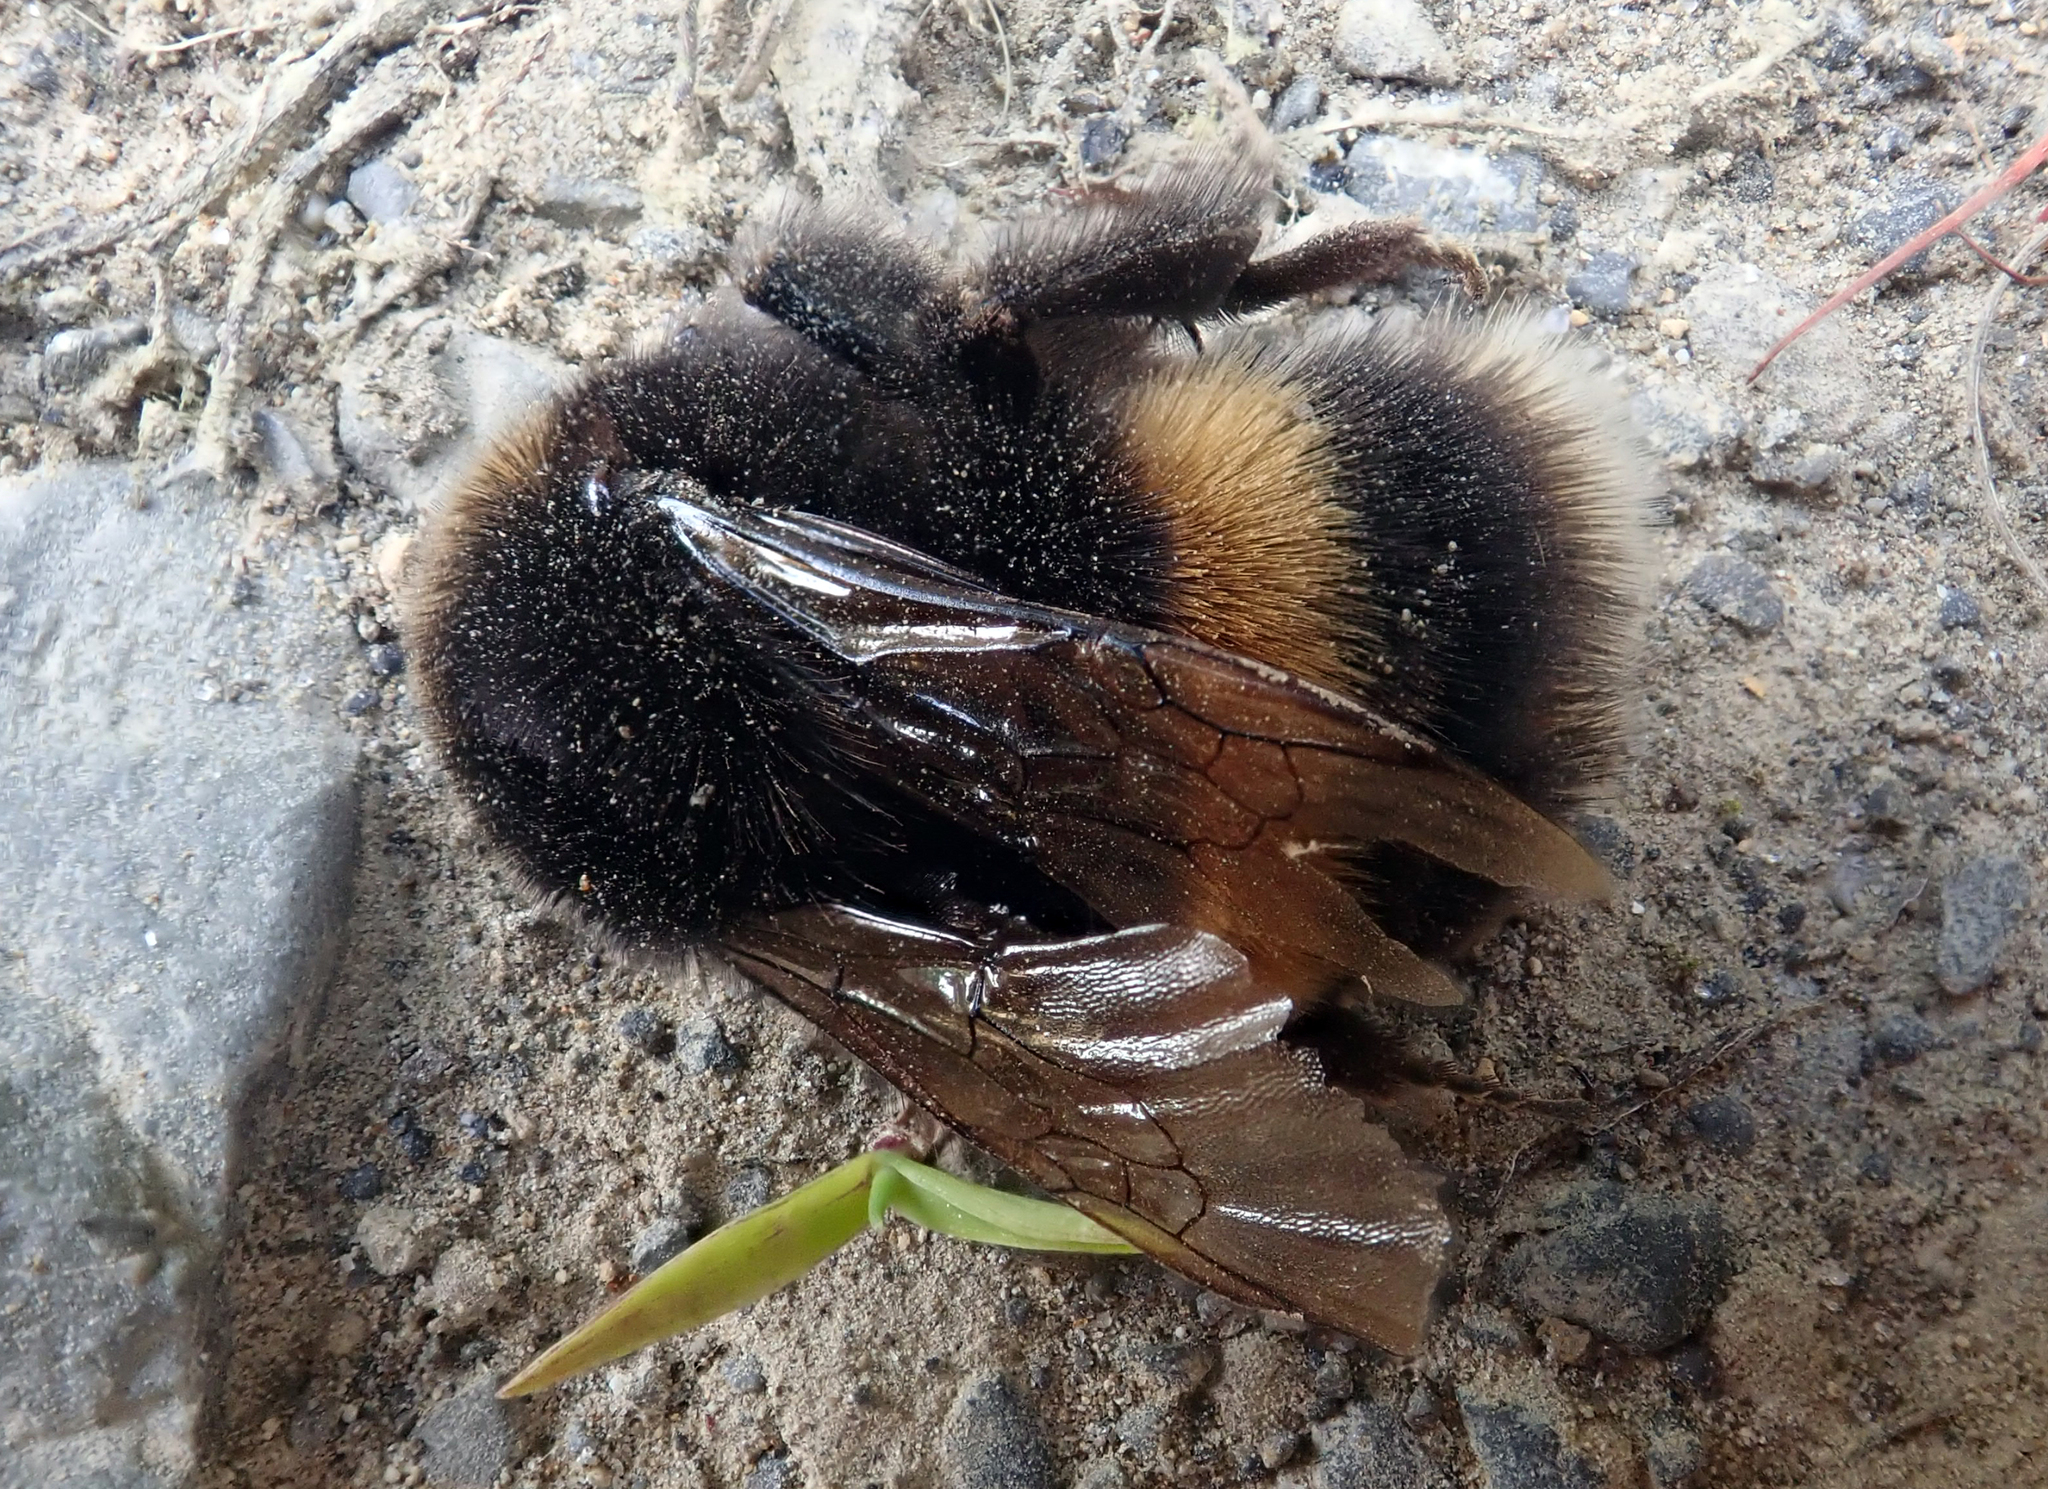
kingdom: Animalia
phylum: Arthropoda
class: Insecta
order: Hymenoptera
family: Apidae
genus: Bombus
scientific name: Bombus terrestris
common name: Buff-tailed bumblebee
